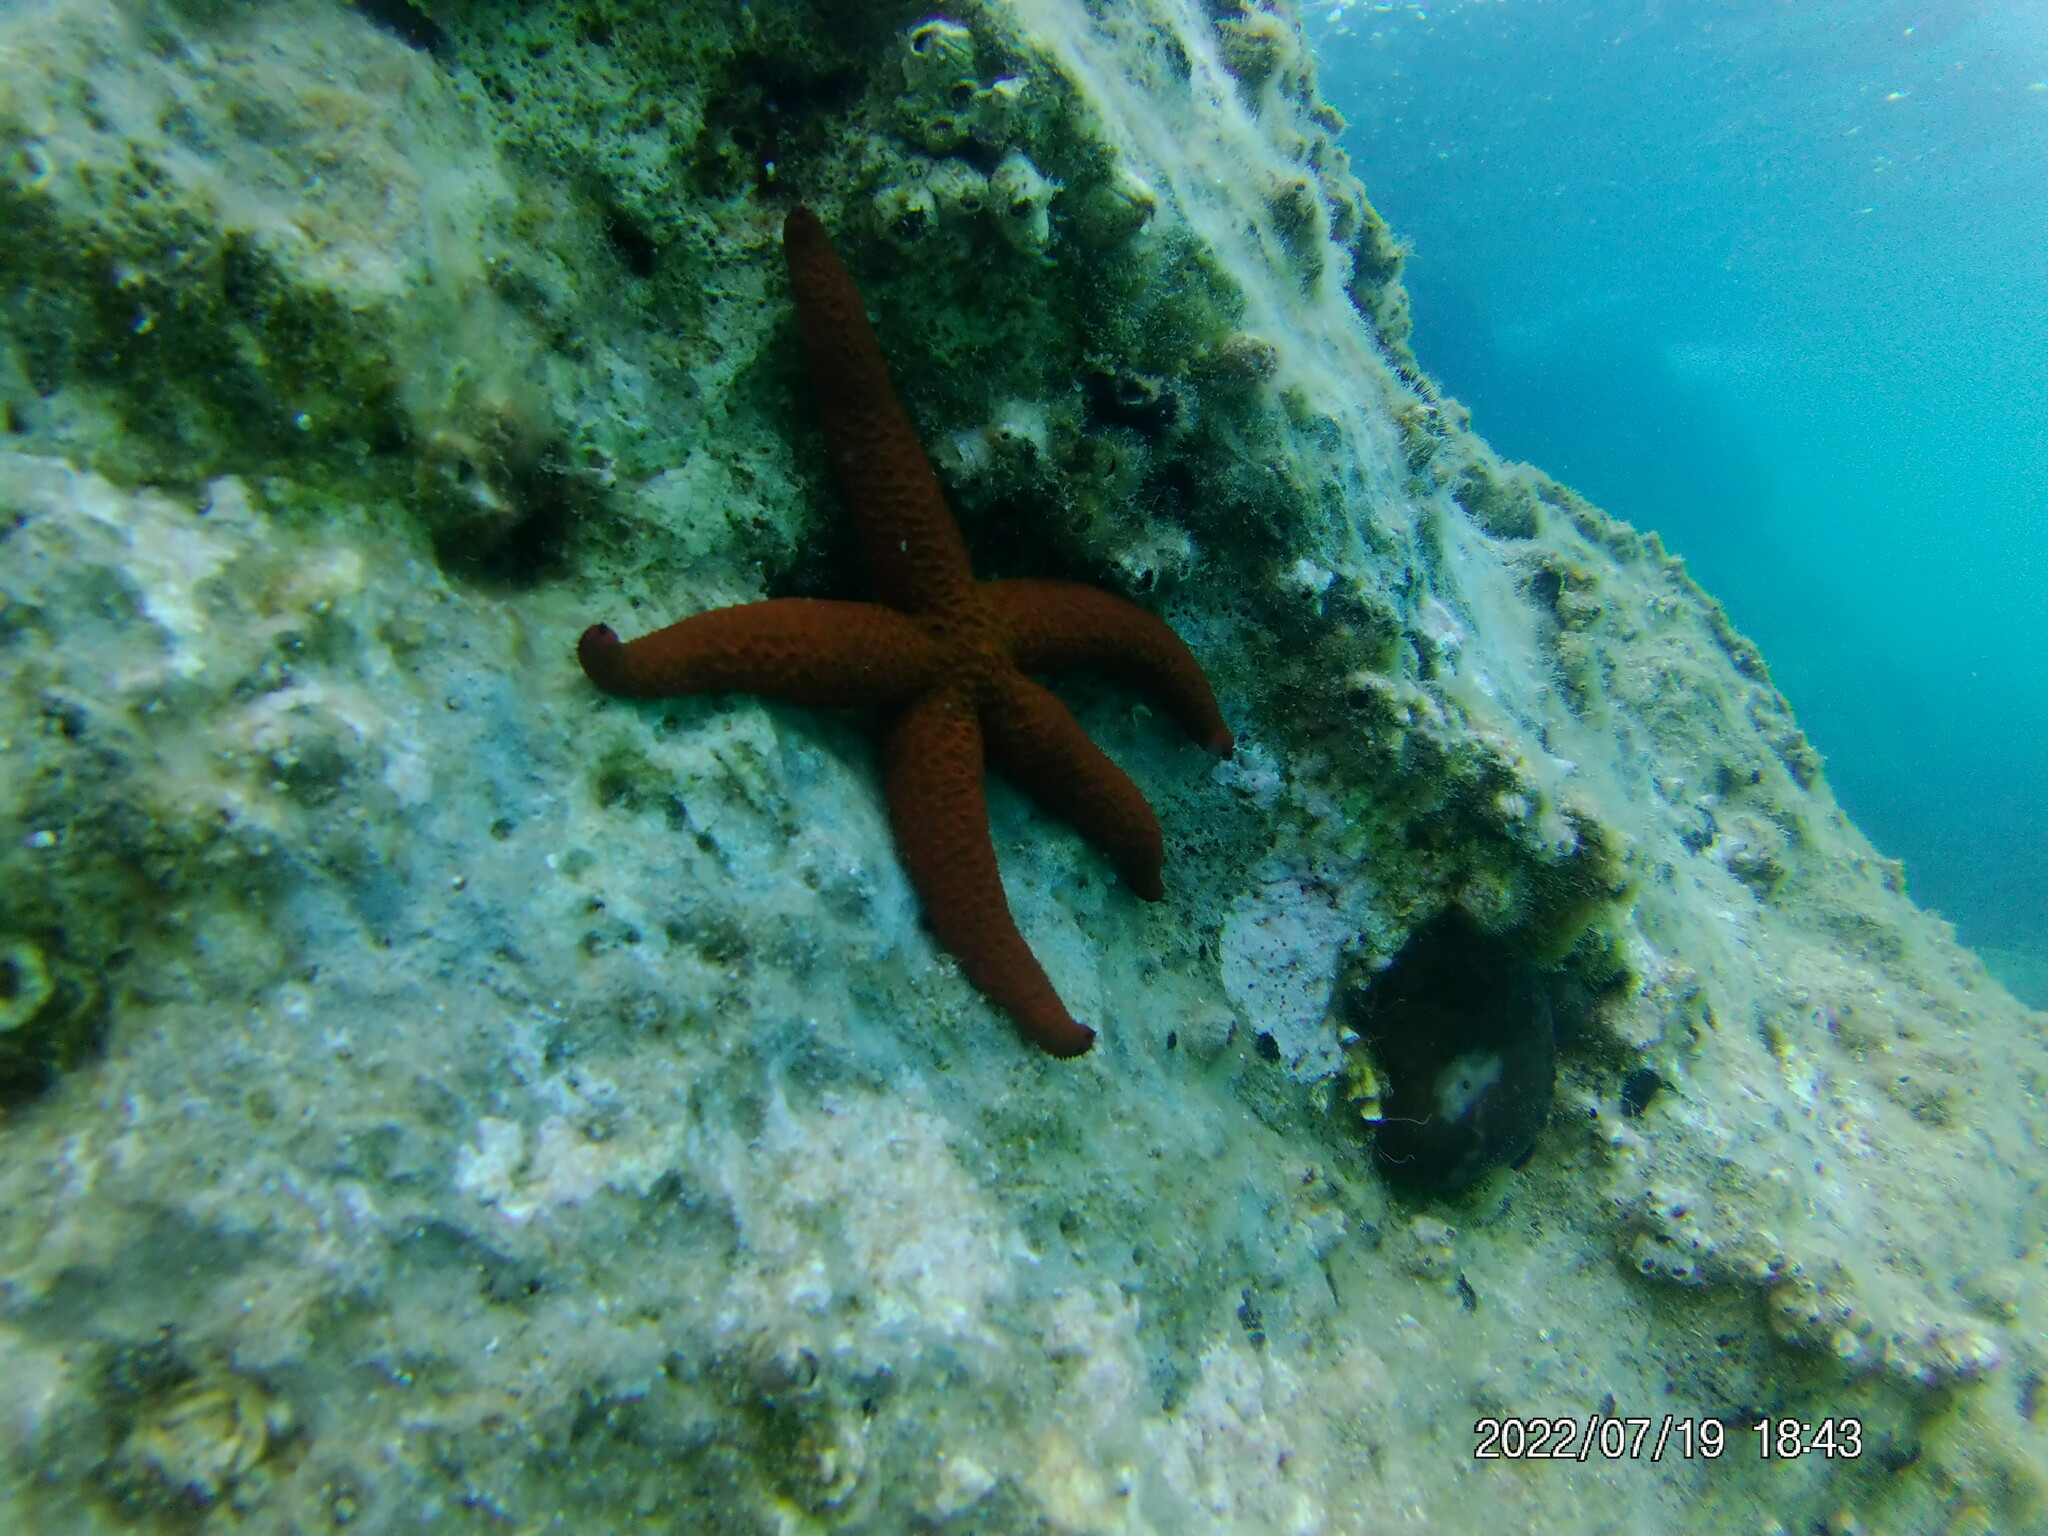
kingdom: Animalia
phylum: Echinodermata
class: Asteroidea
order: Spinulosida
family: Echinasteridae
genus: Echinaster
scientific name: Echinaster sepositus
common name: Red starfish
